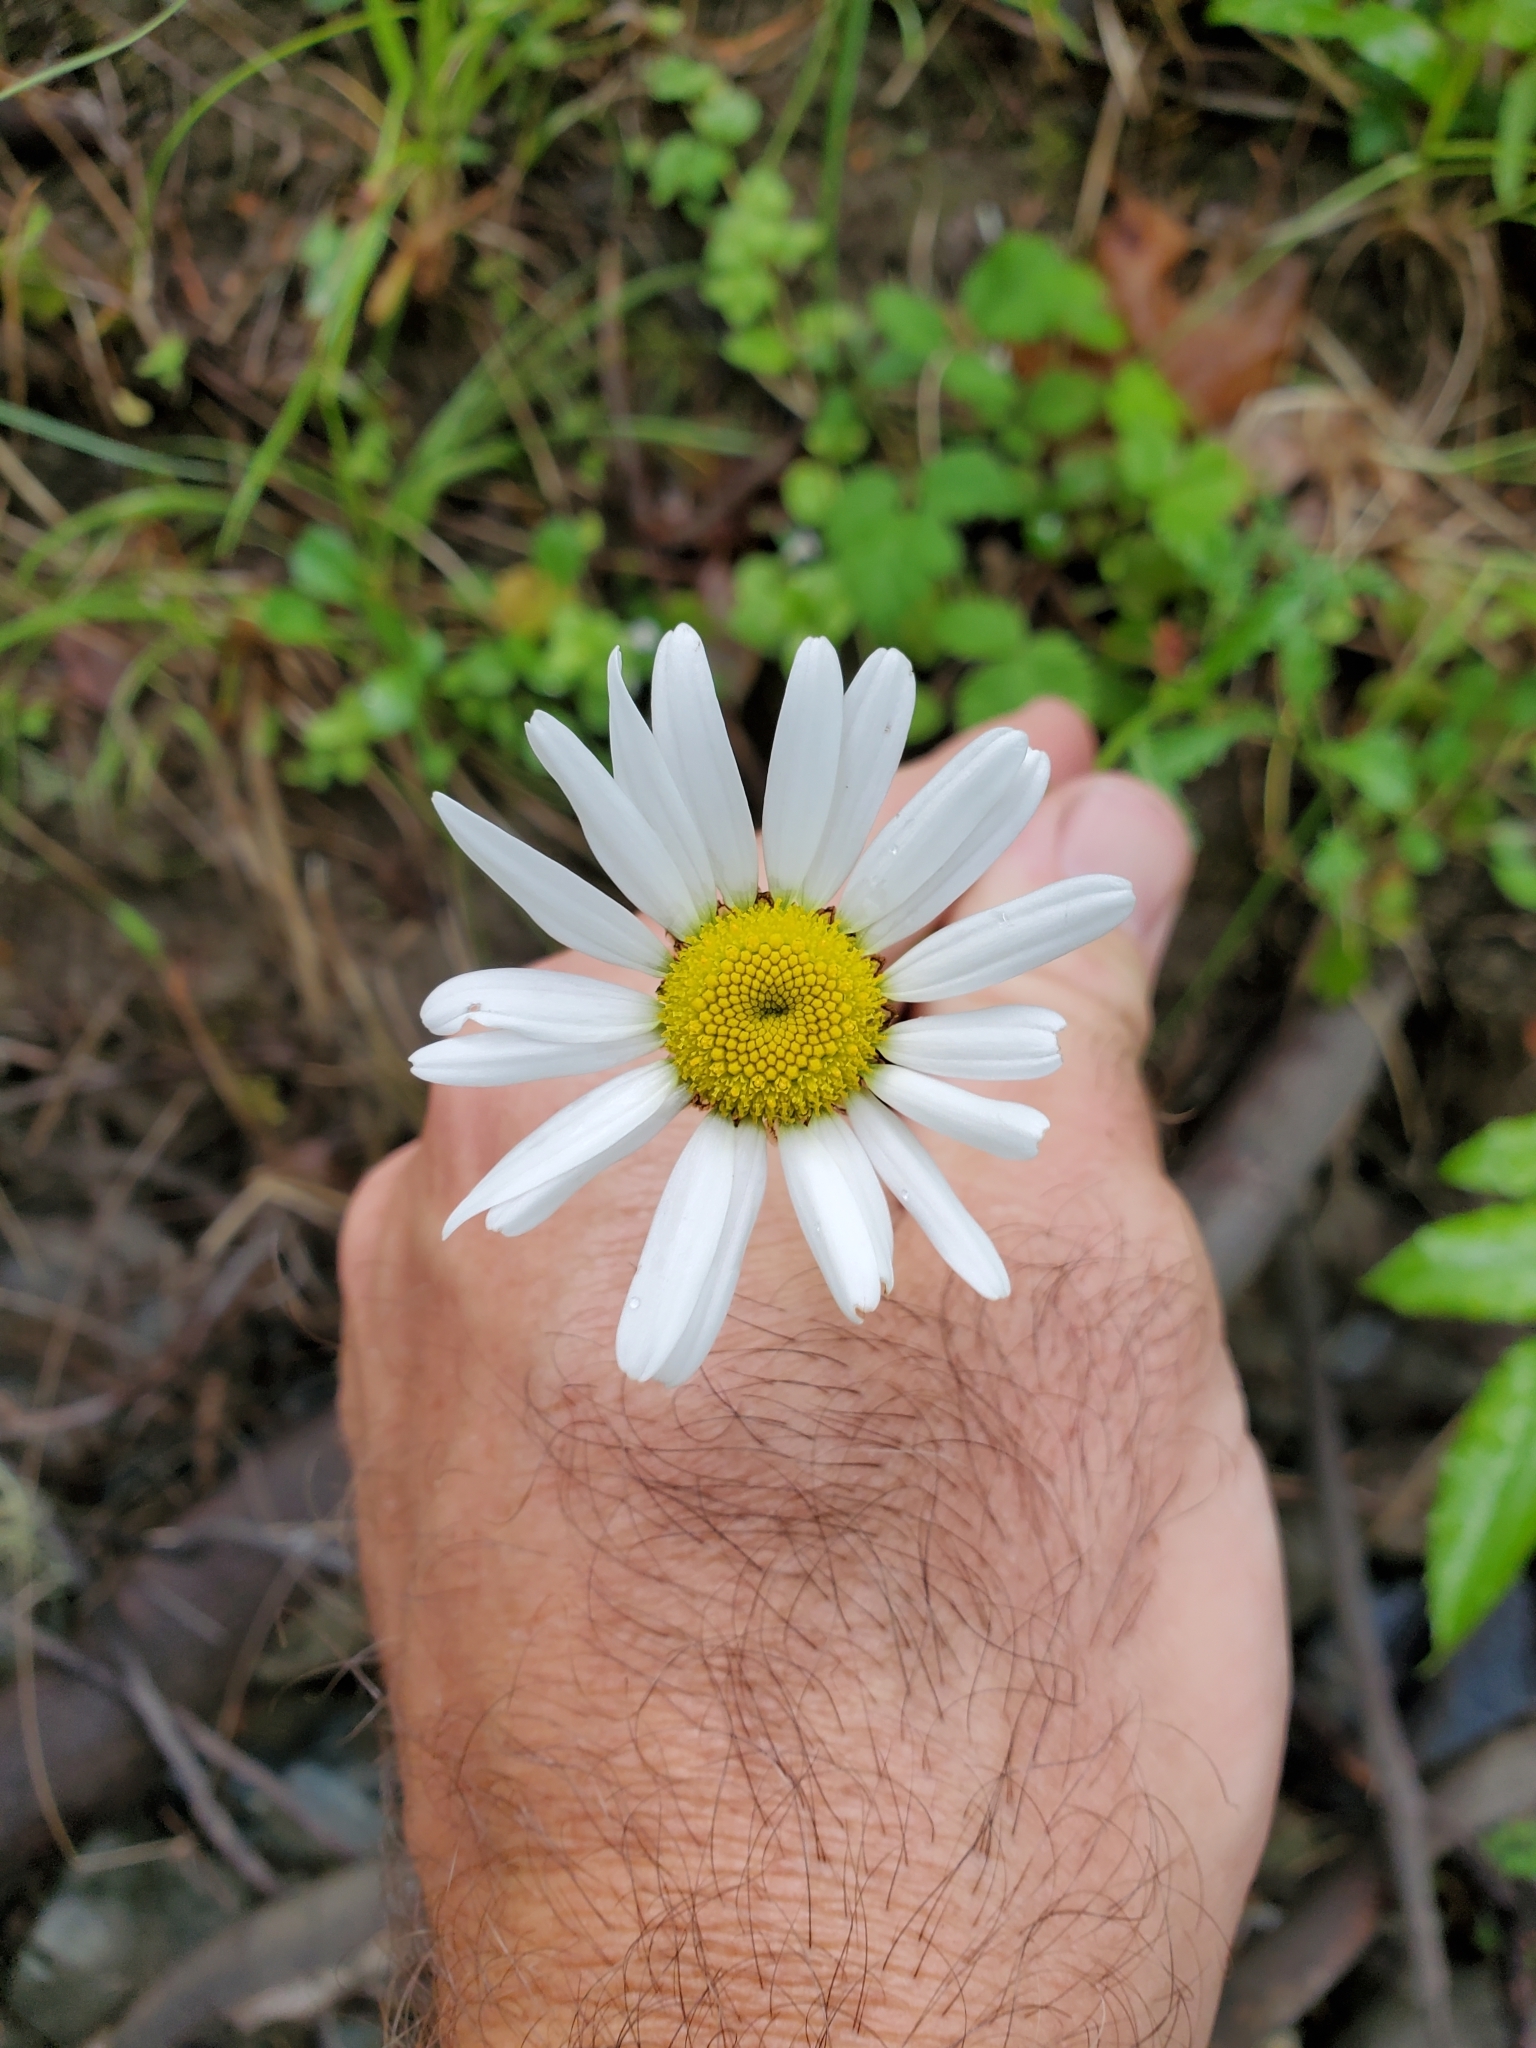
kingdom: Plantae
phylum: Tracheophyta
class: Magnoliopsida
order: Asterales
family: Asteraceae
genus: Leucanthemum
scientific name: Leucanthemum vulgare
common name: Oxeye daisy
